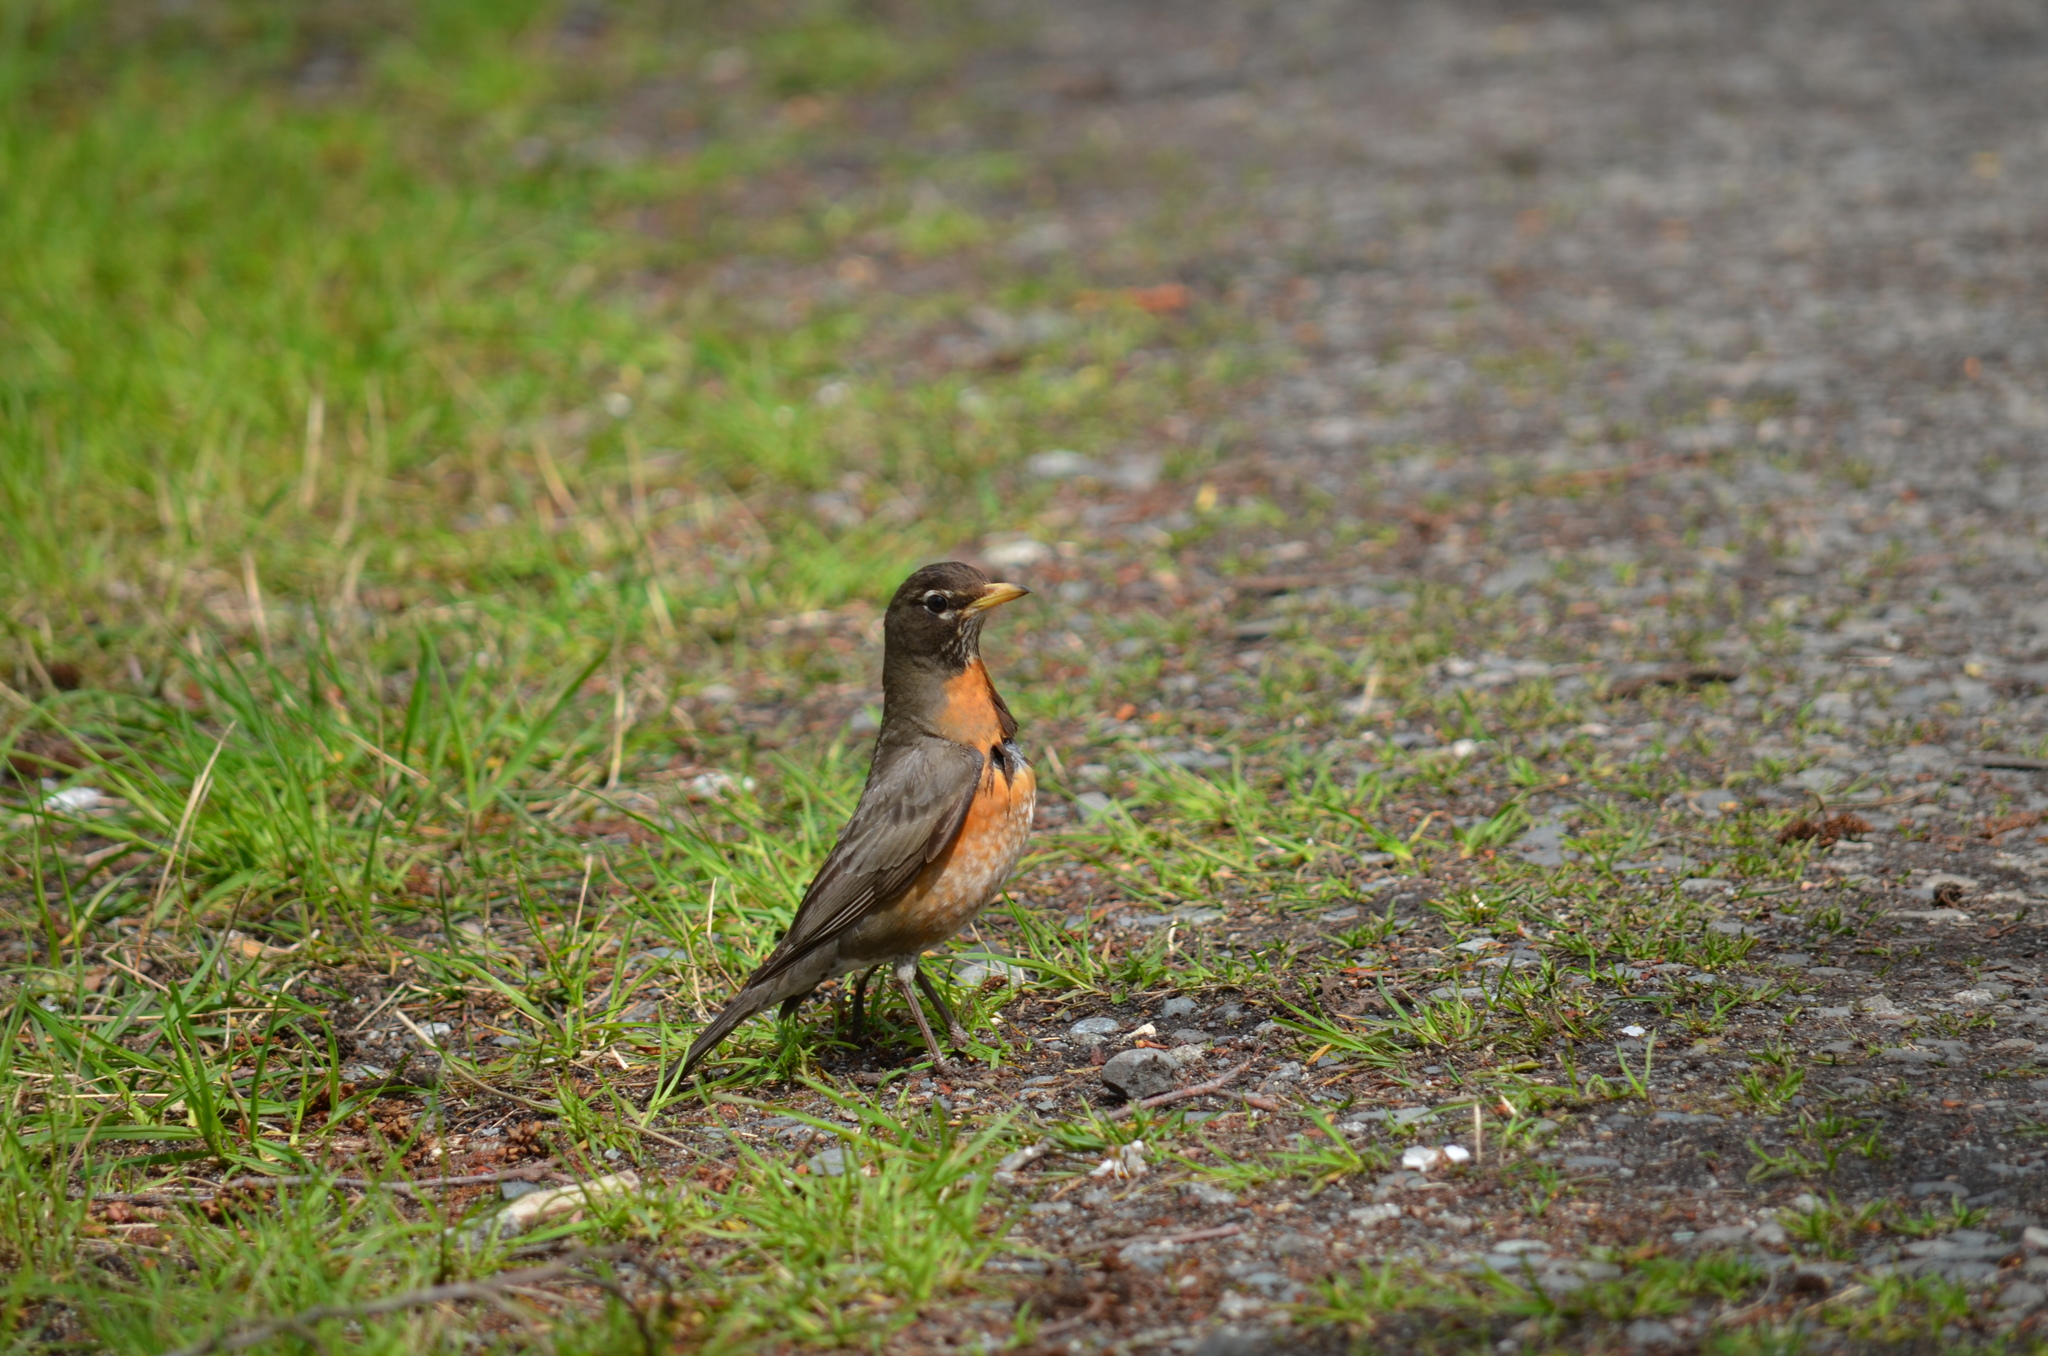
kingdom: Animalia
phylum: Chordata
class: Aves
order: Passeriformes
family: Turdidae
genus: Turdus
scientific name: Turdus migratorius
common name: American robin
